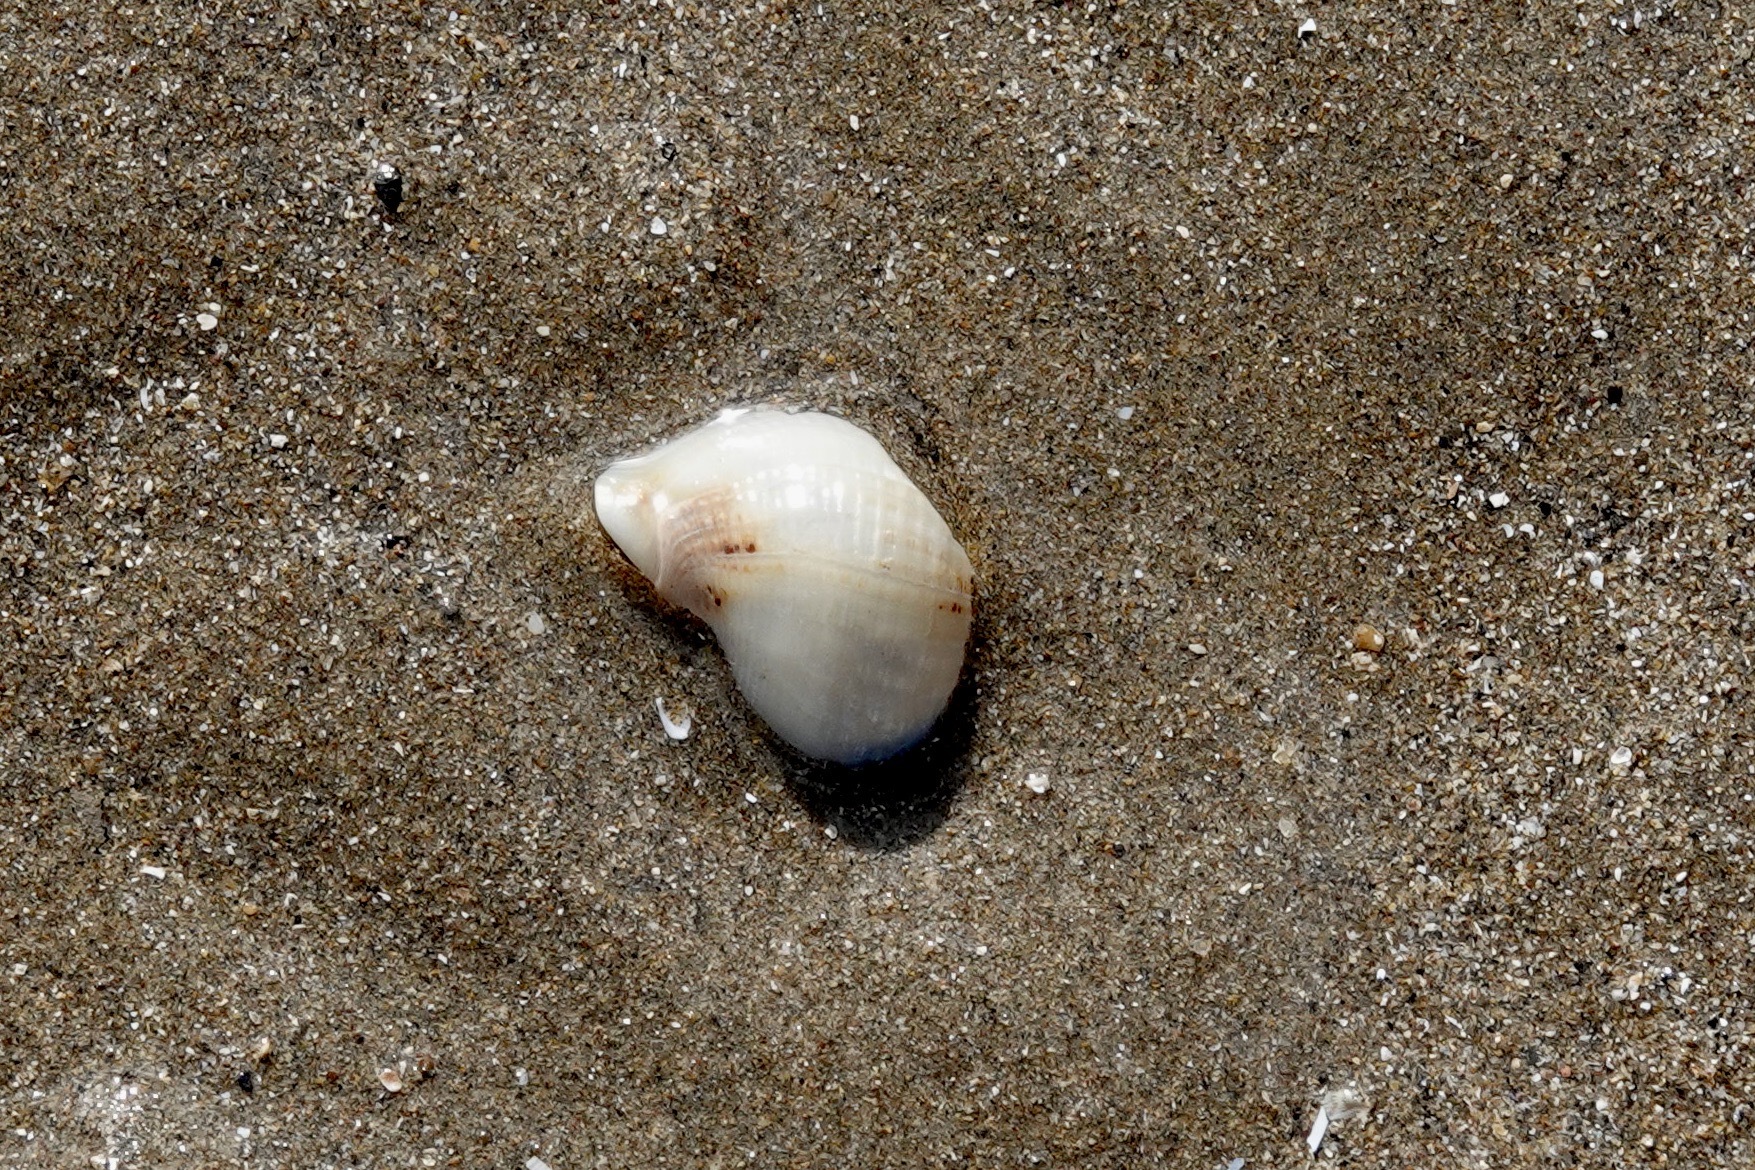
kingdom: Animalia
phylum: Mollusca
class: Gastropoda
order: Neogastropoda
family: Buccinidae
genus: Buccinum
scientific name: Buccinum undatum
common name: Common whelk
